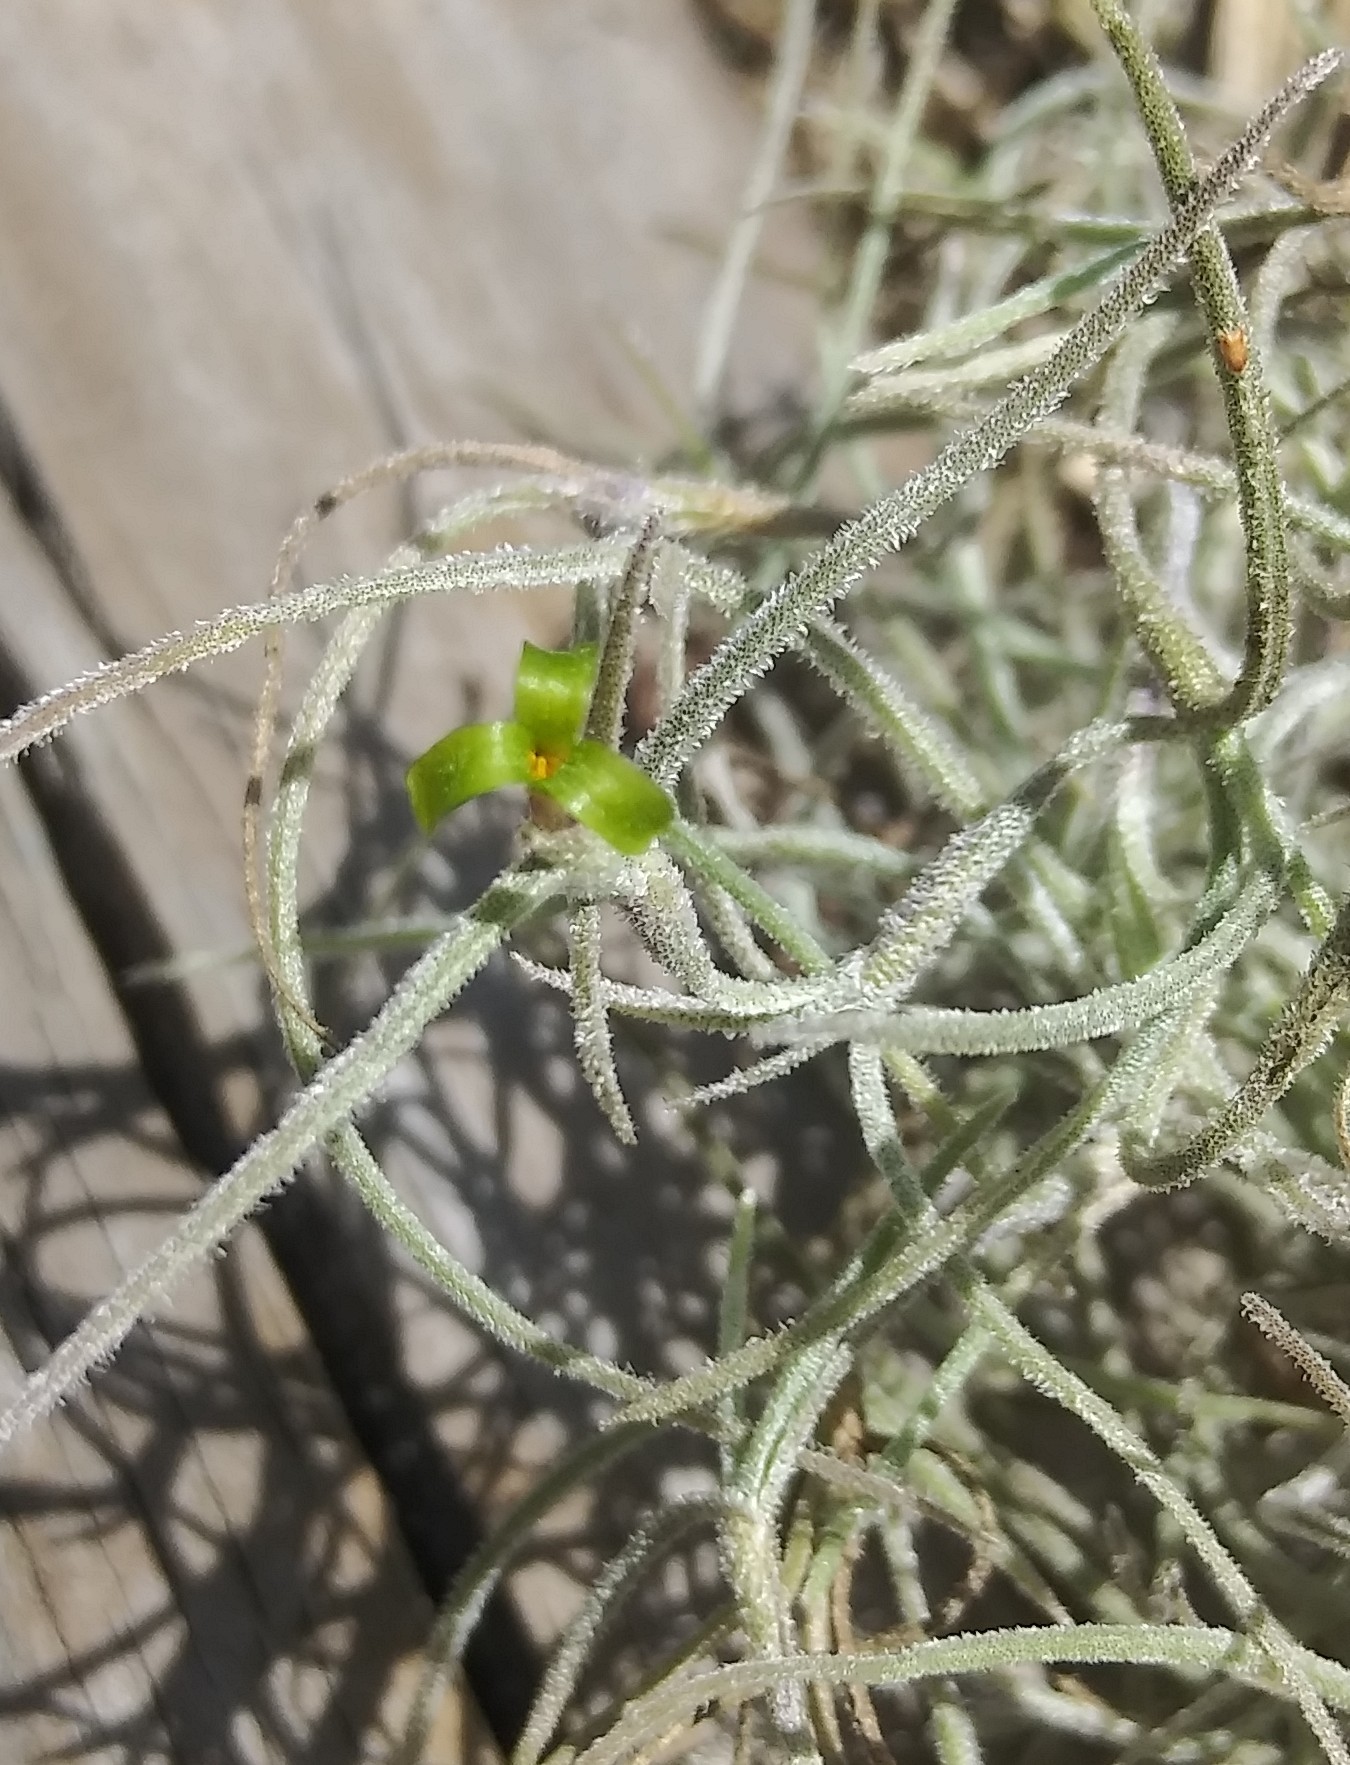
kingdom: Plantae
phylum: Tracheophyta
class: Liliopsida
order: Poales
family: Bromeliaceae
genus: Tillandsia
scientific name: Tillandsia usneoides
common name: Spanish moss
